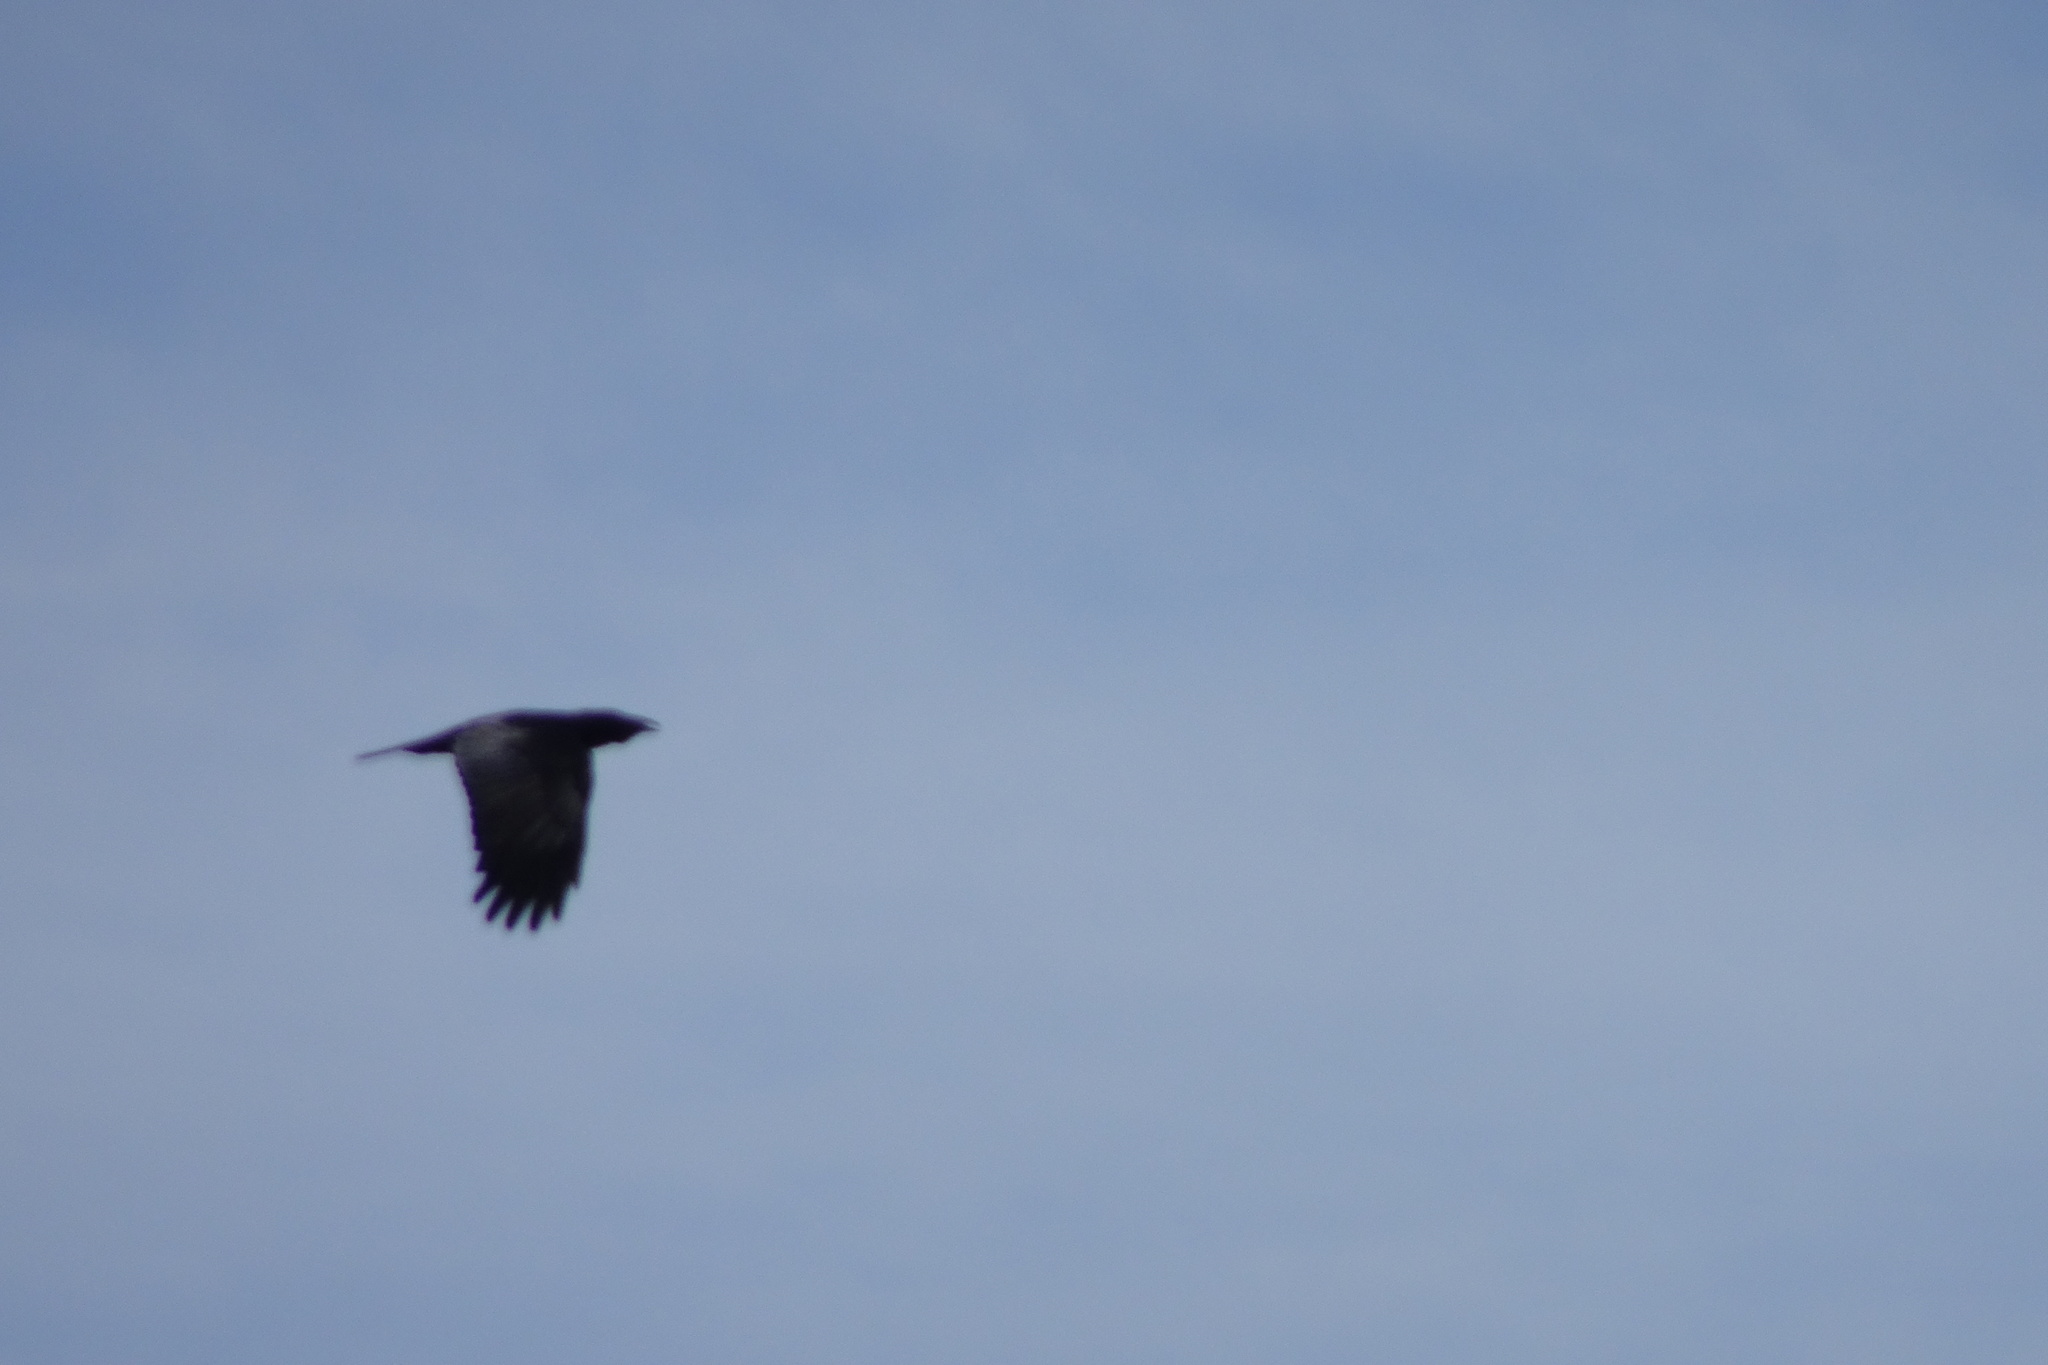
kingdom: Animalia
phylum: Chordata
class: Aves
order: Passeriformes
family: Corvidae
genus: Corvus
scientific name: Corvus corax
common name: Common raven
